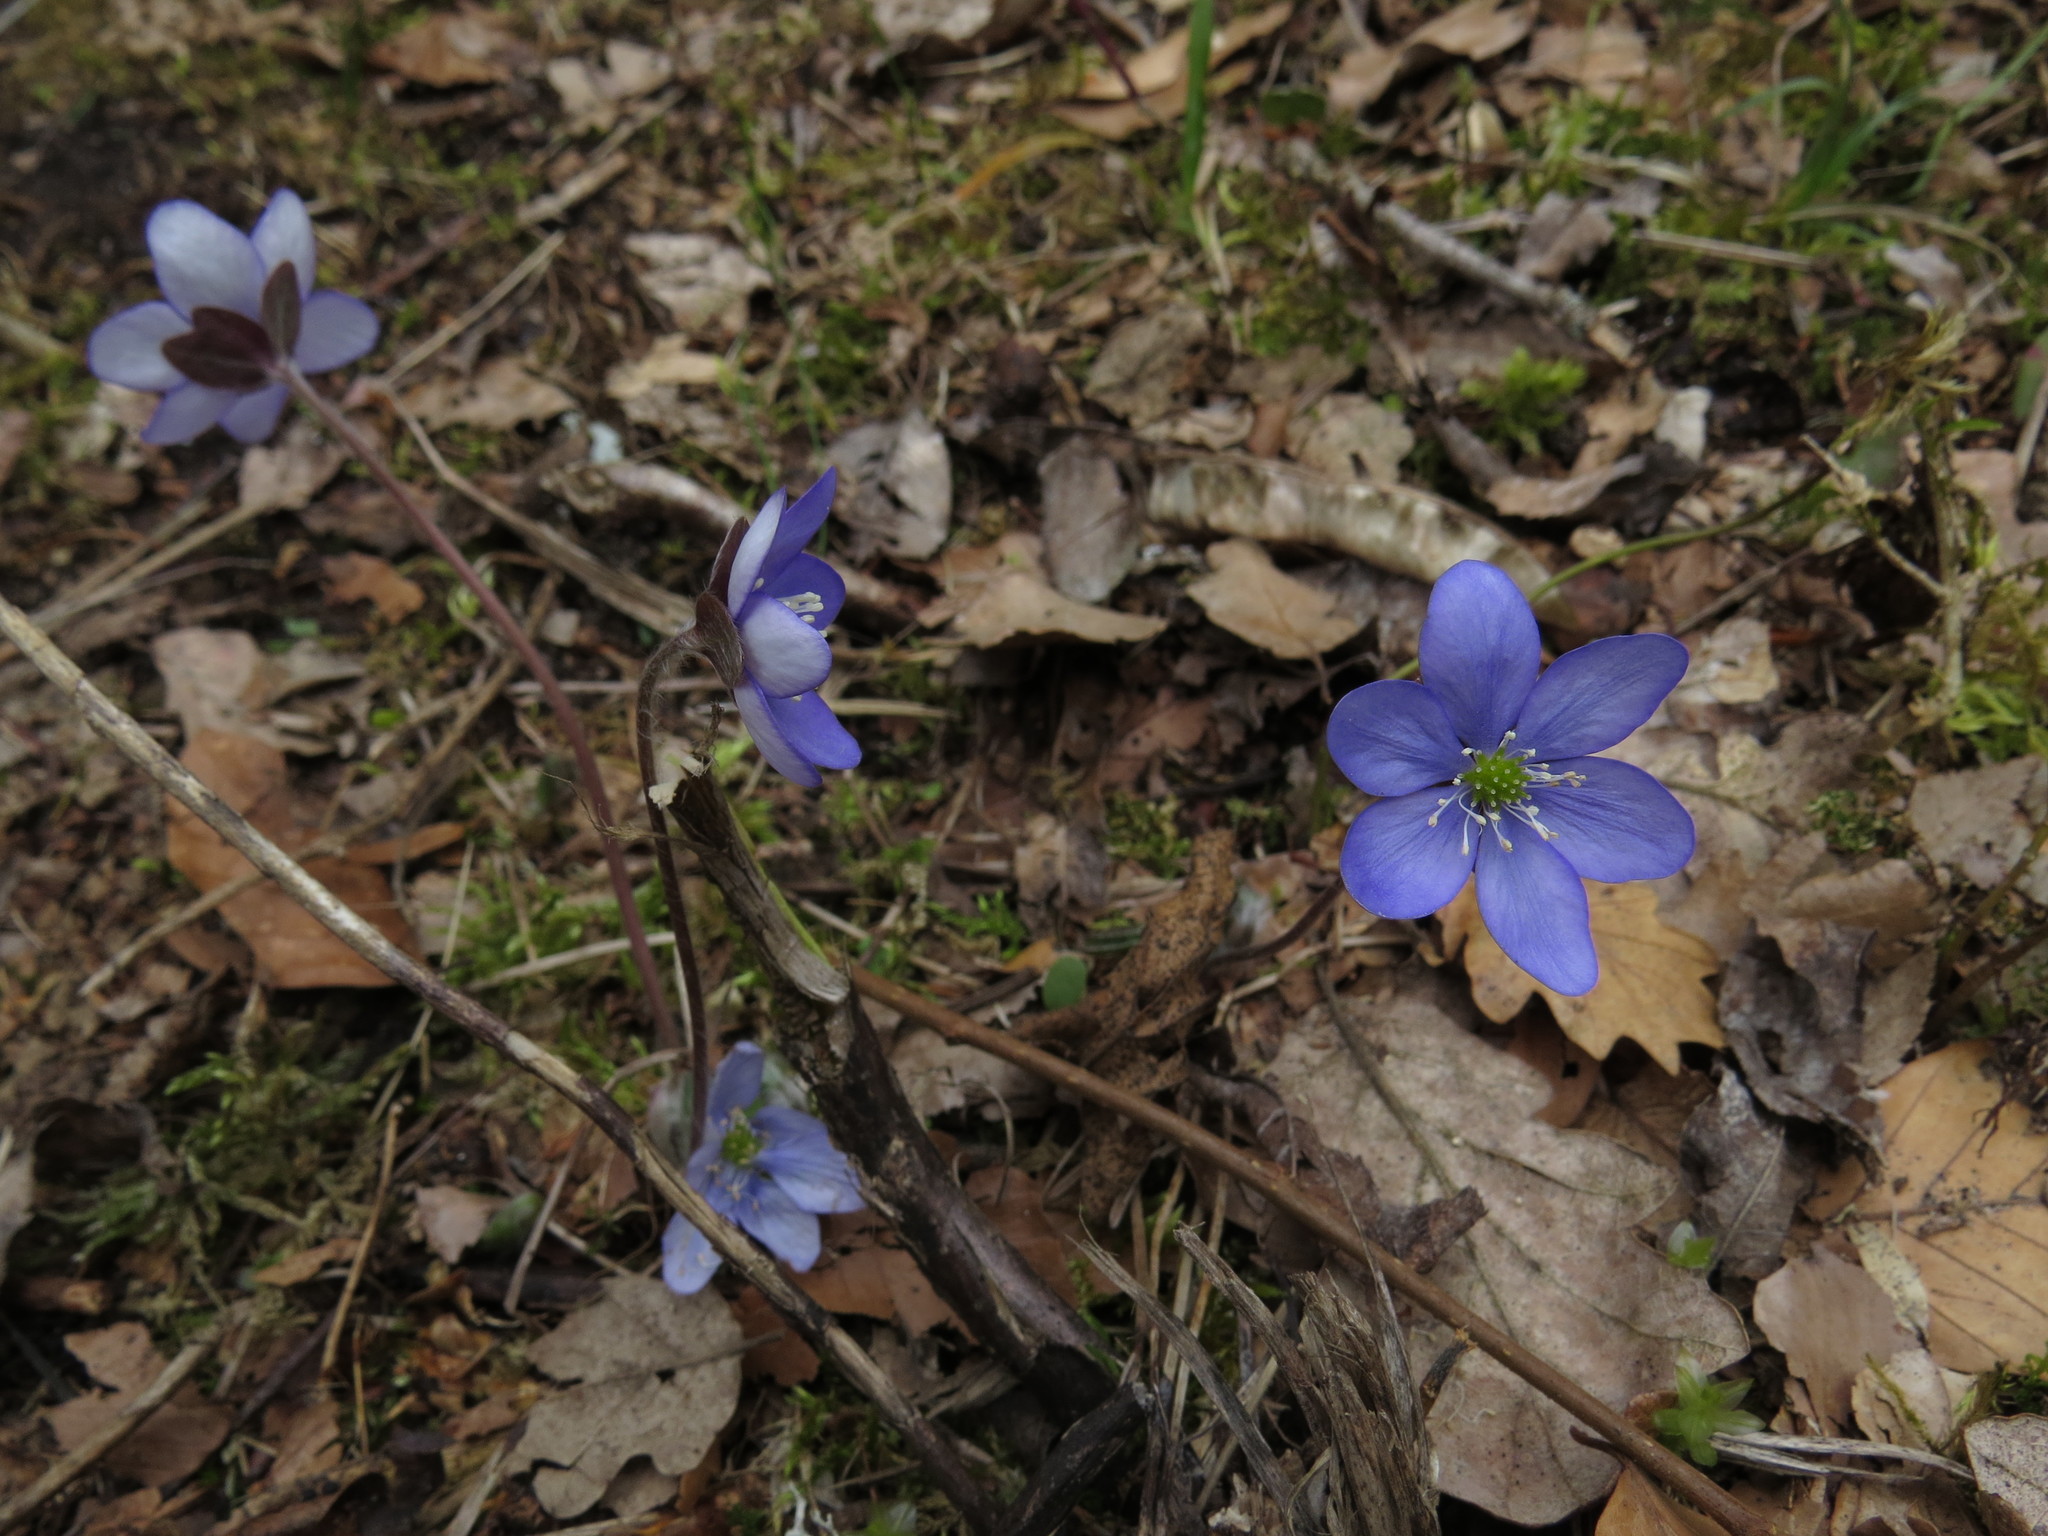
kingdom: Plantae
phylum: Tracheophyta
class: Magnoliopsida
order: Ranunculales
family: Ranunculaceae
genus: Hepatica
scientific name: Hepatica nobilis
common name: Liverleaf
